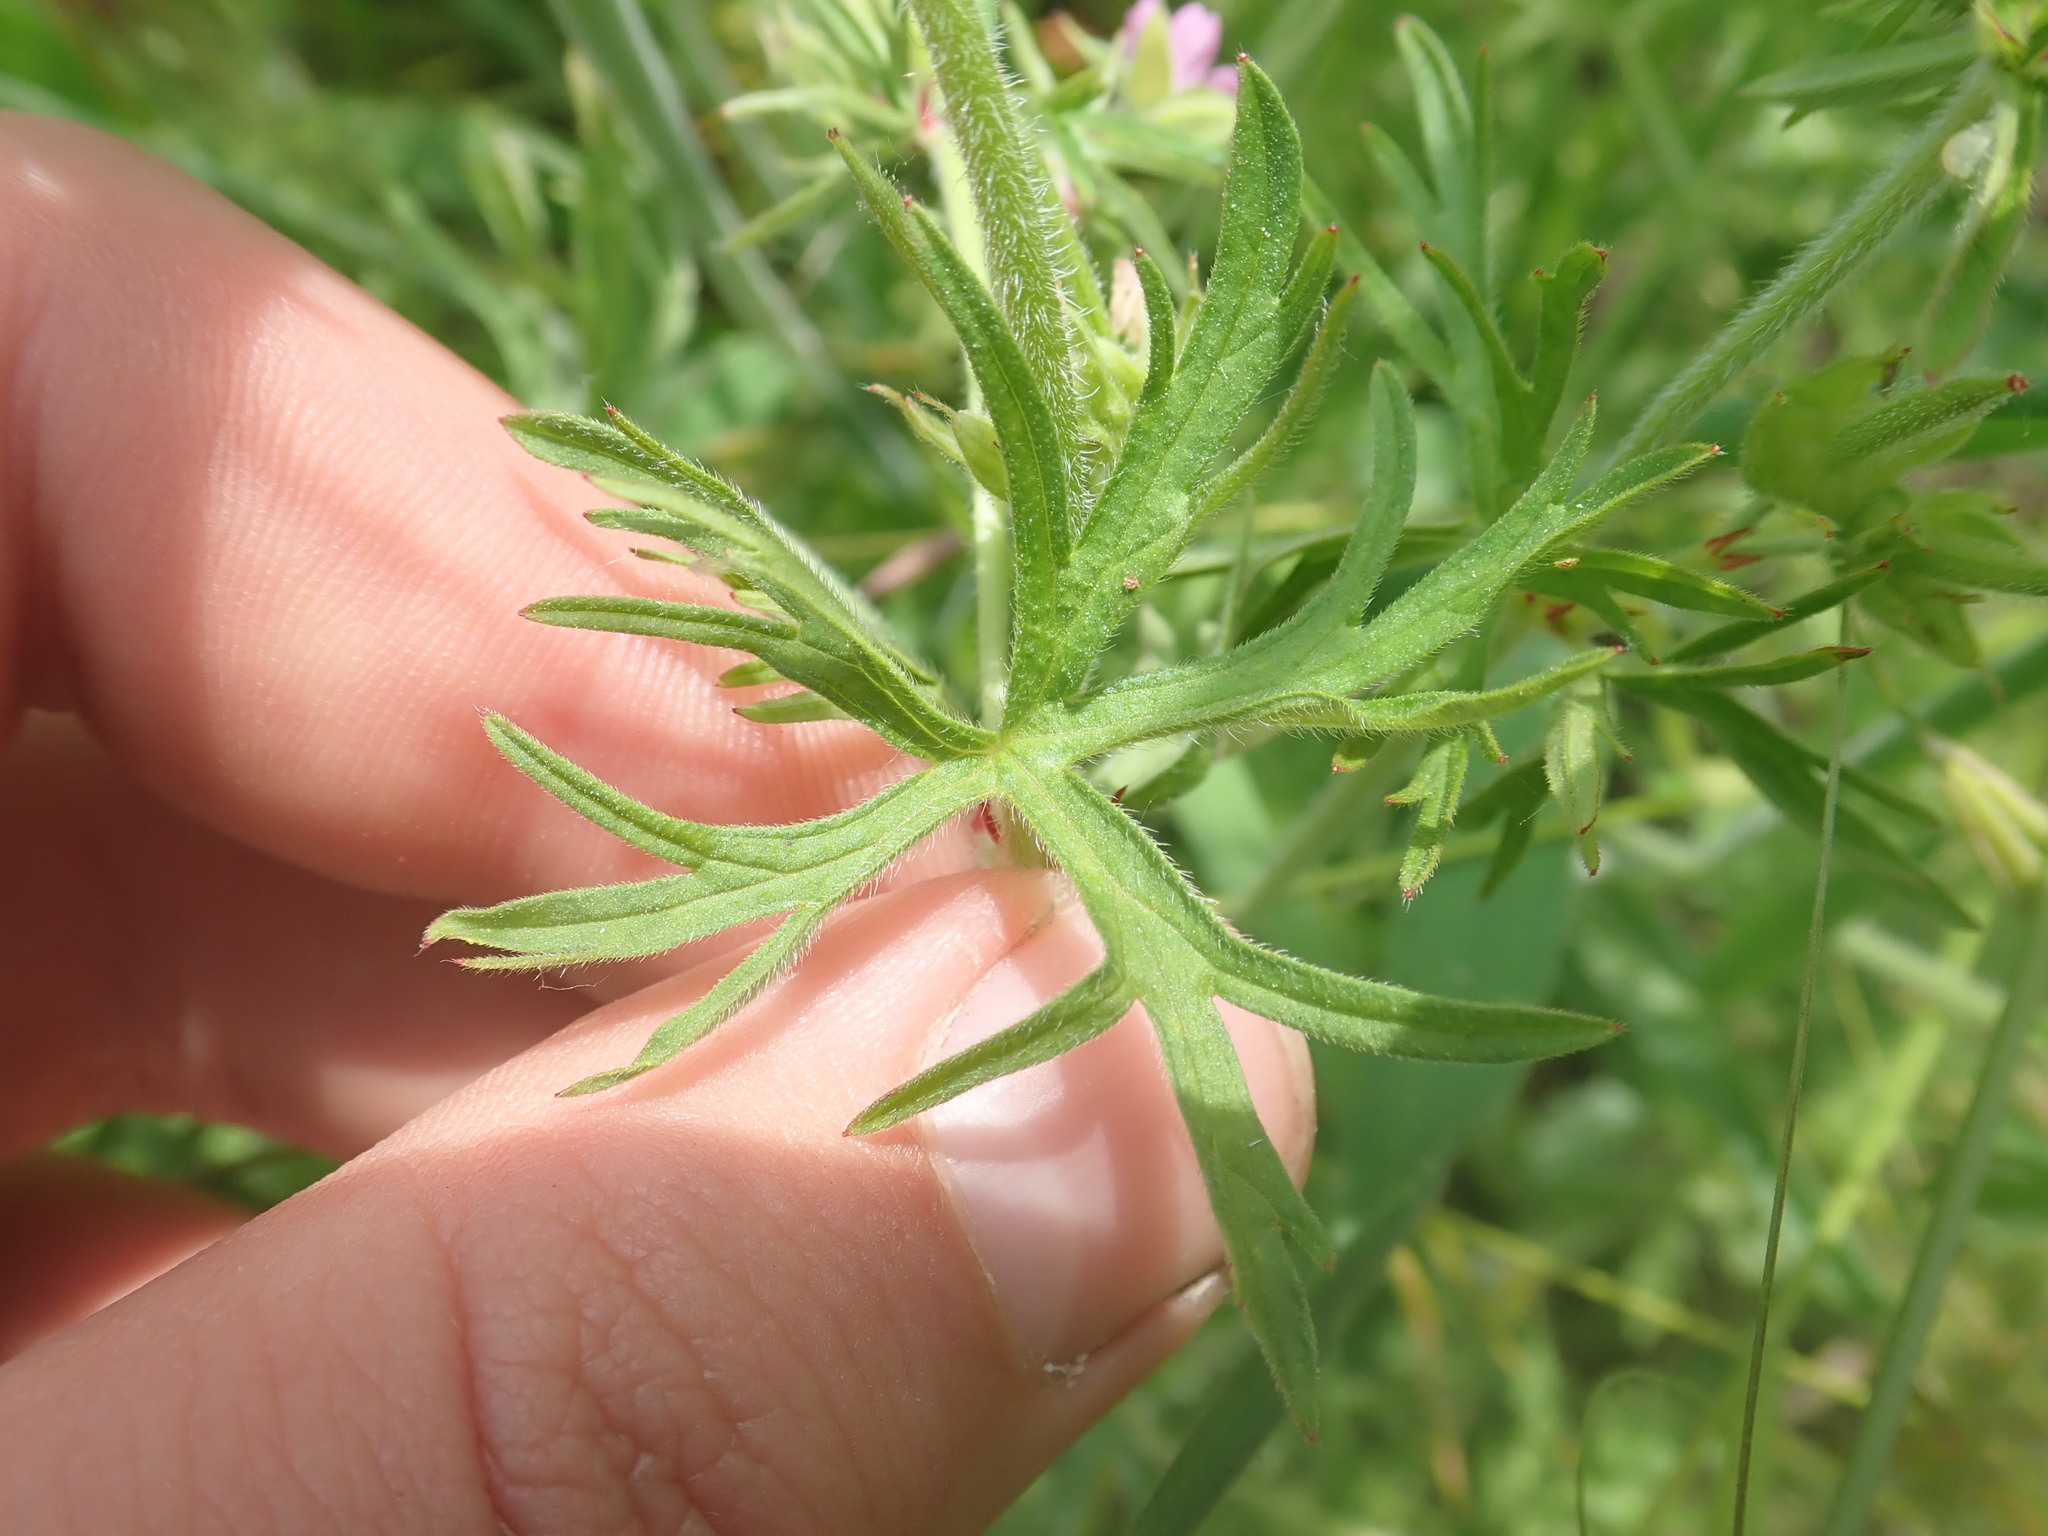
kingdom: Plantae
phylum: Tracheophyta
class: Magnoliopsida
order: Geraniales
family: Geraniaceae
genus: Geranium
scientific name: Geranium dissectum
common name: Cut-leaved crane's-bill
